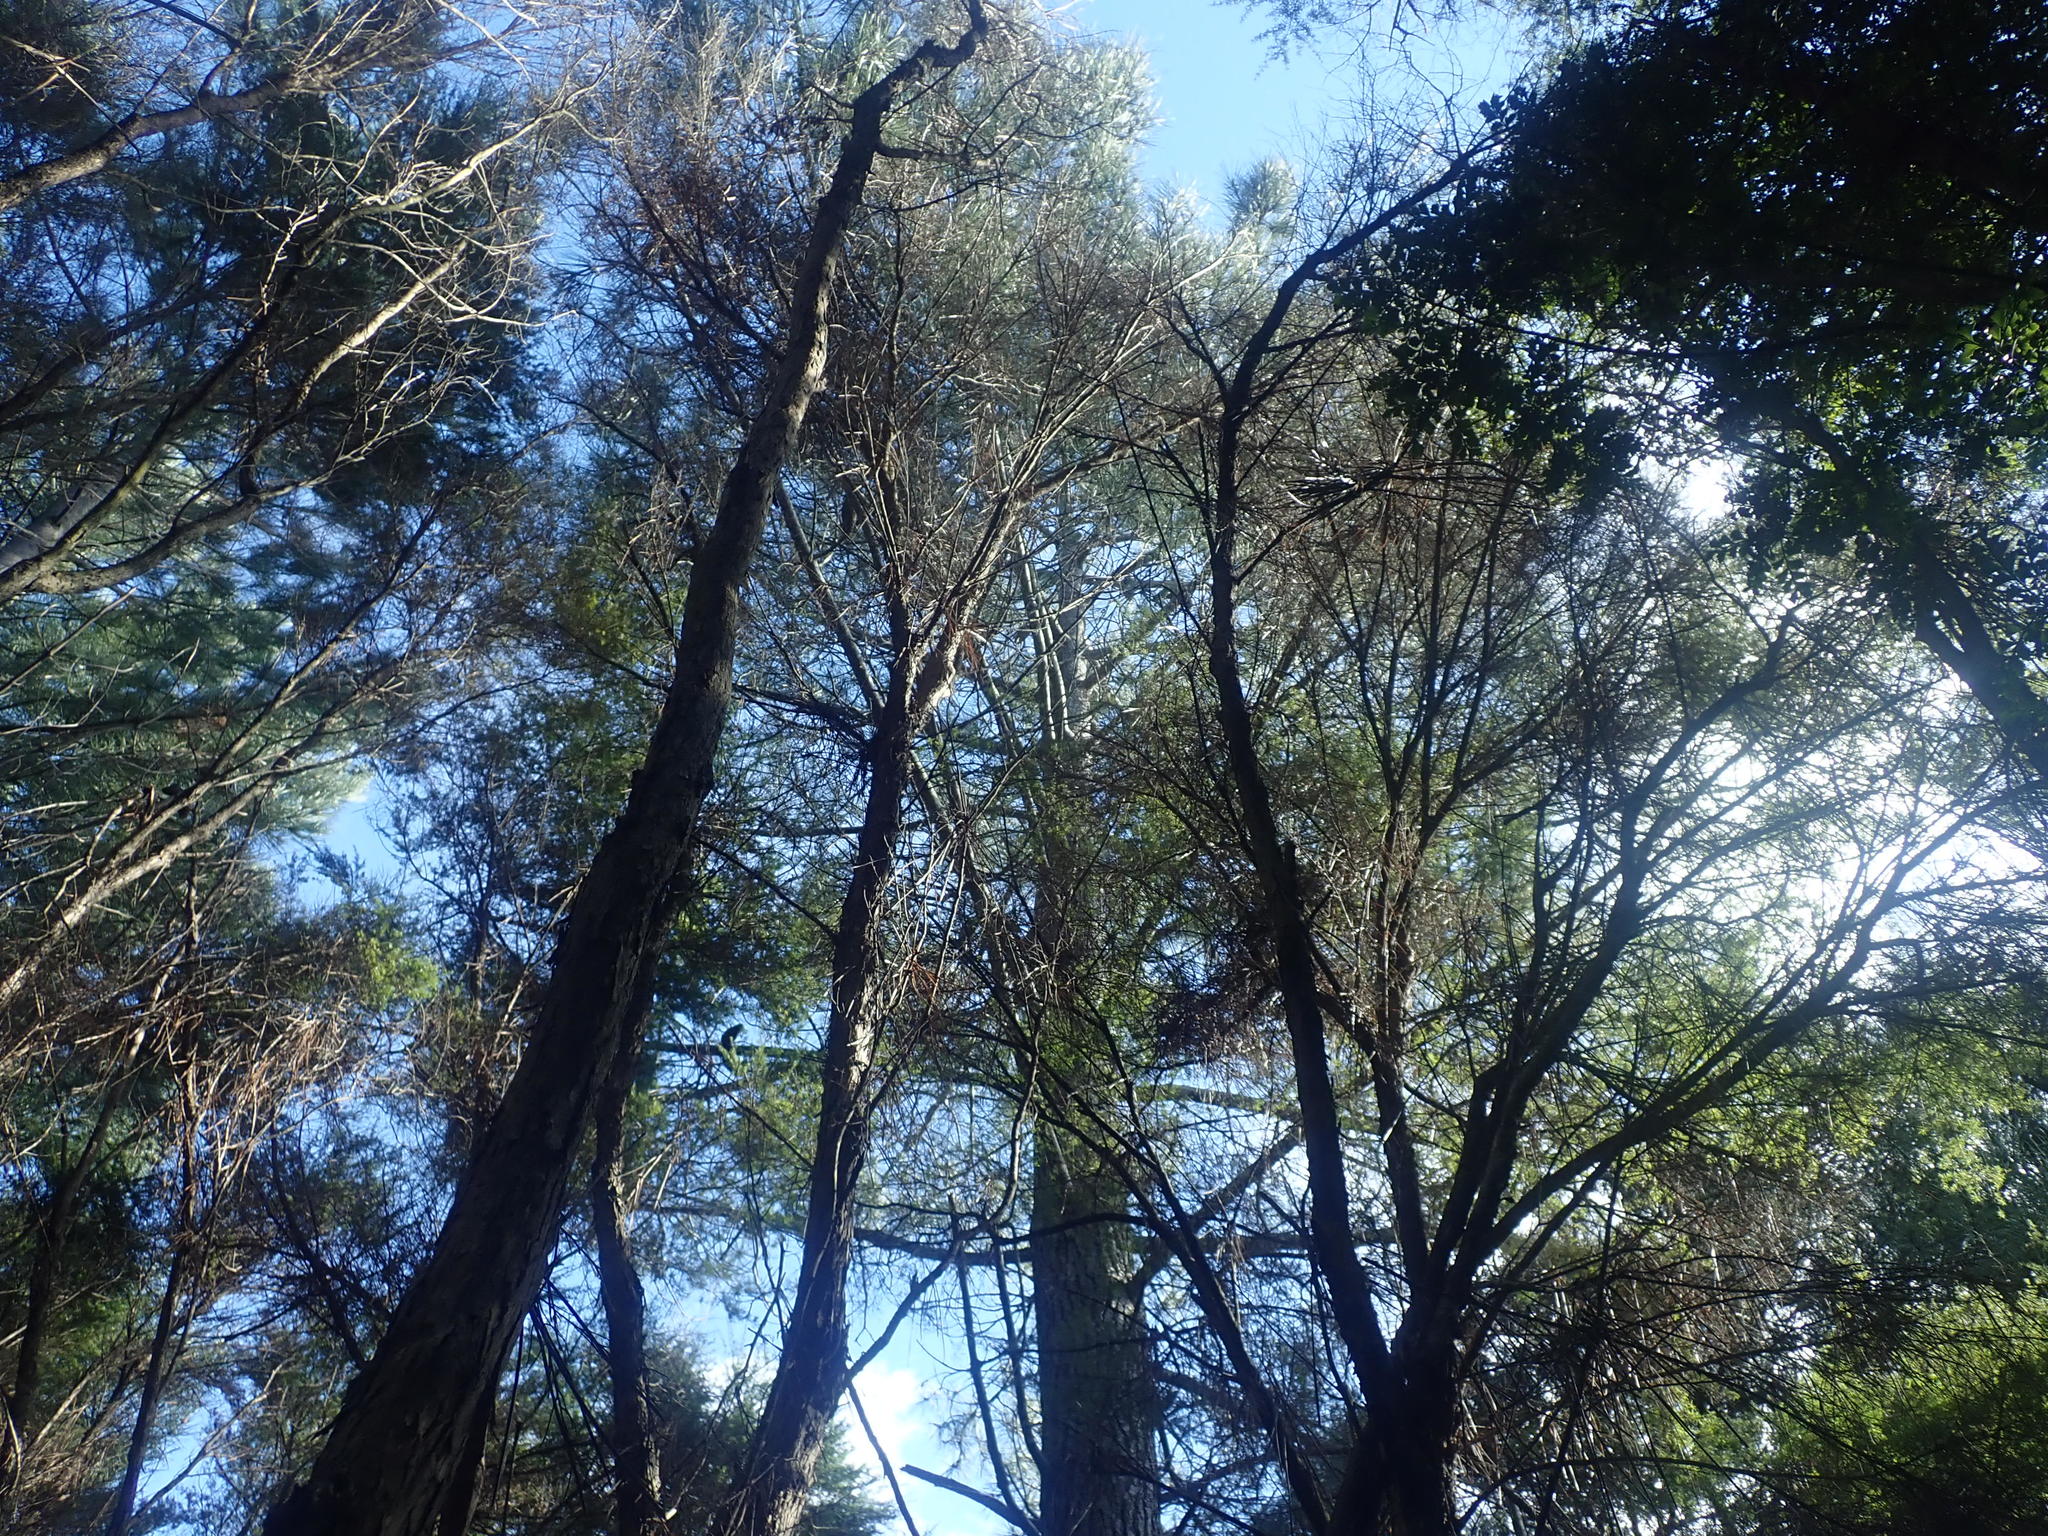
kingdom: Plantae
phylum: Tracheophyta
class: Pinopsida
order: Pinales
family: Pinaceae
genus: Pinus
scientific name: Pinus pinaster
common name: Maritime pine
